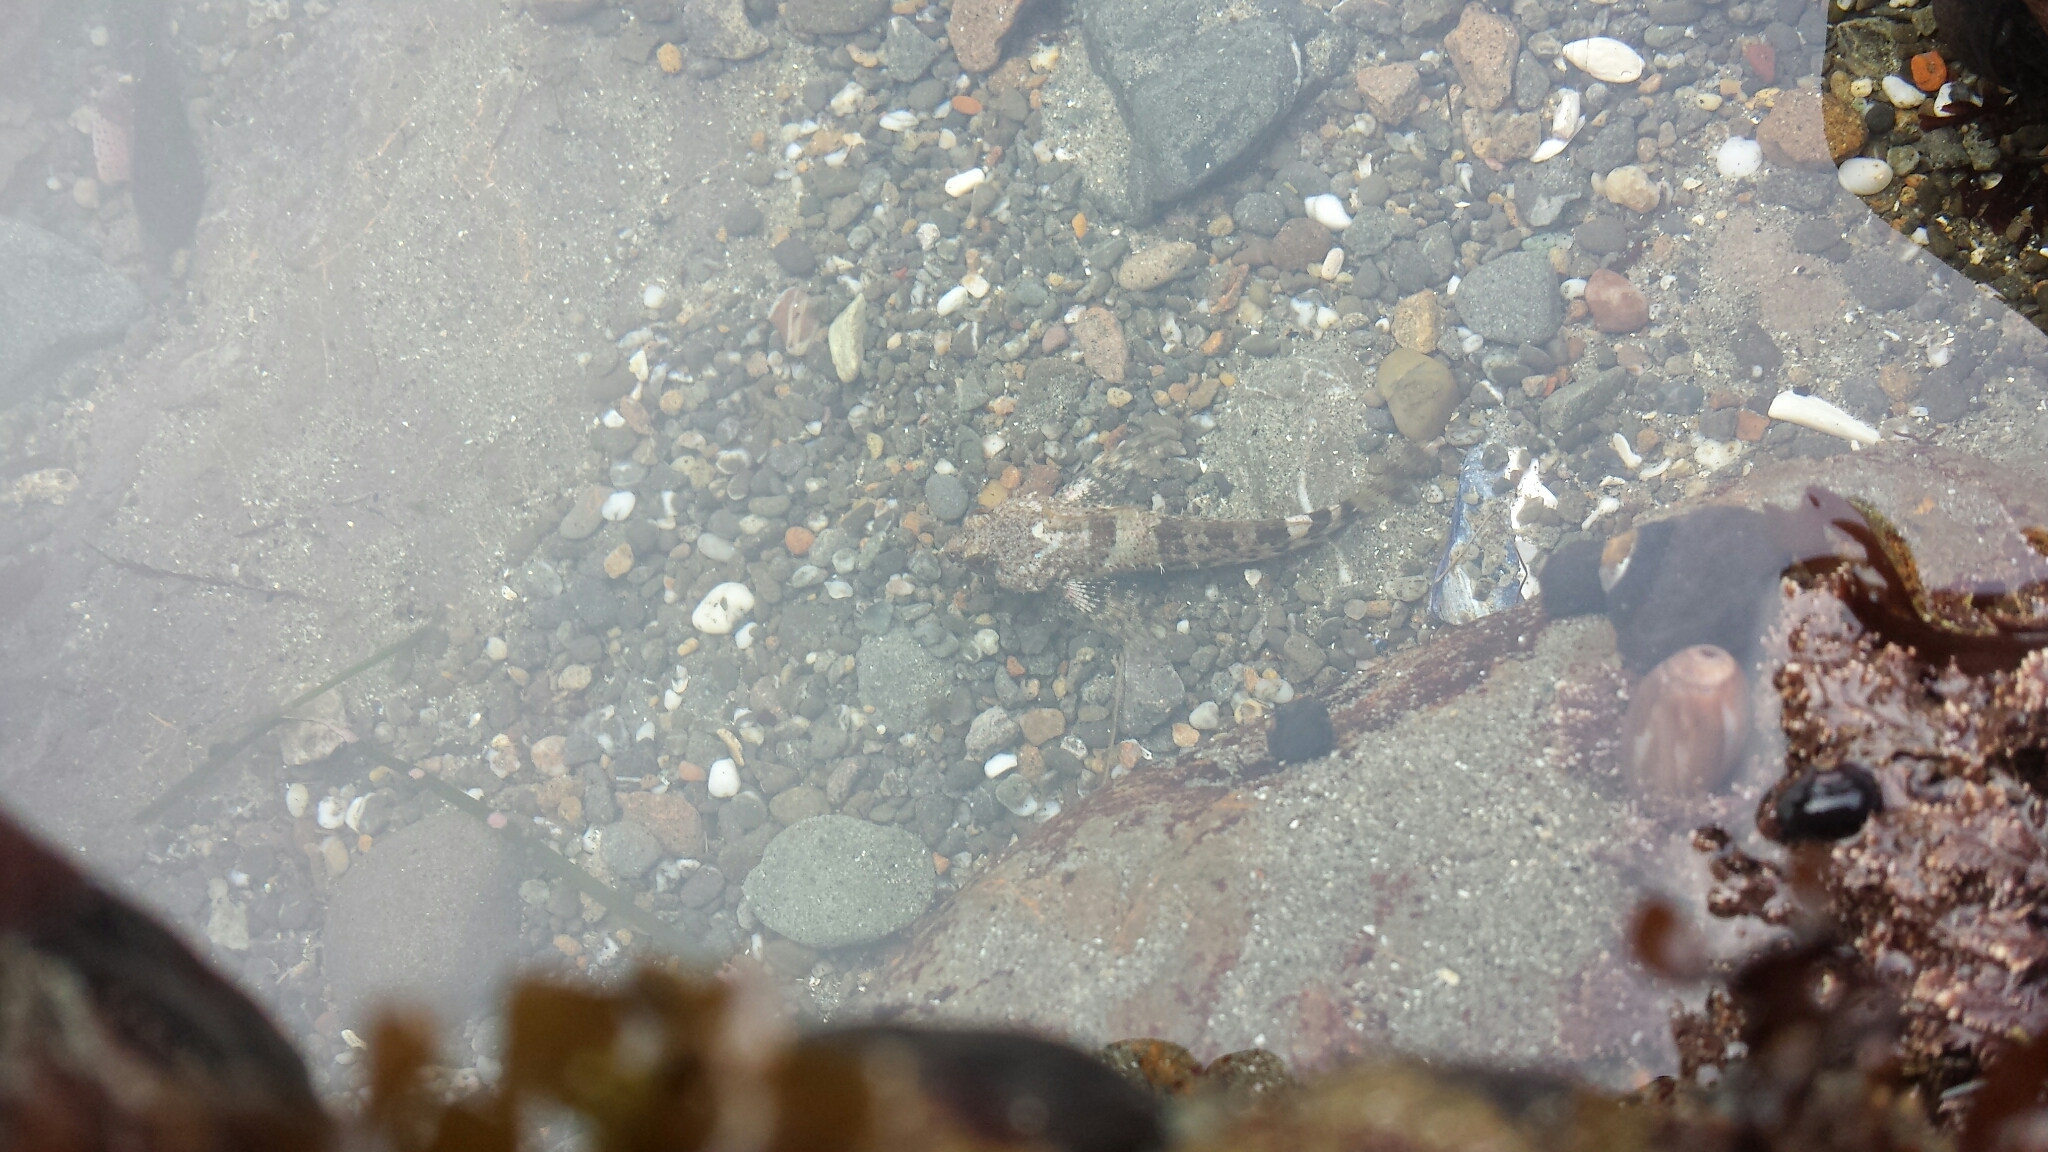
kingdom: Animalia
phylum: Chordata
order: Scorpaeniformes
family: Cottidae
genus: Clinocottus
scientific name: Clinocottus analis
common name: Woolly sculpin
